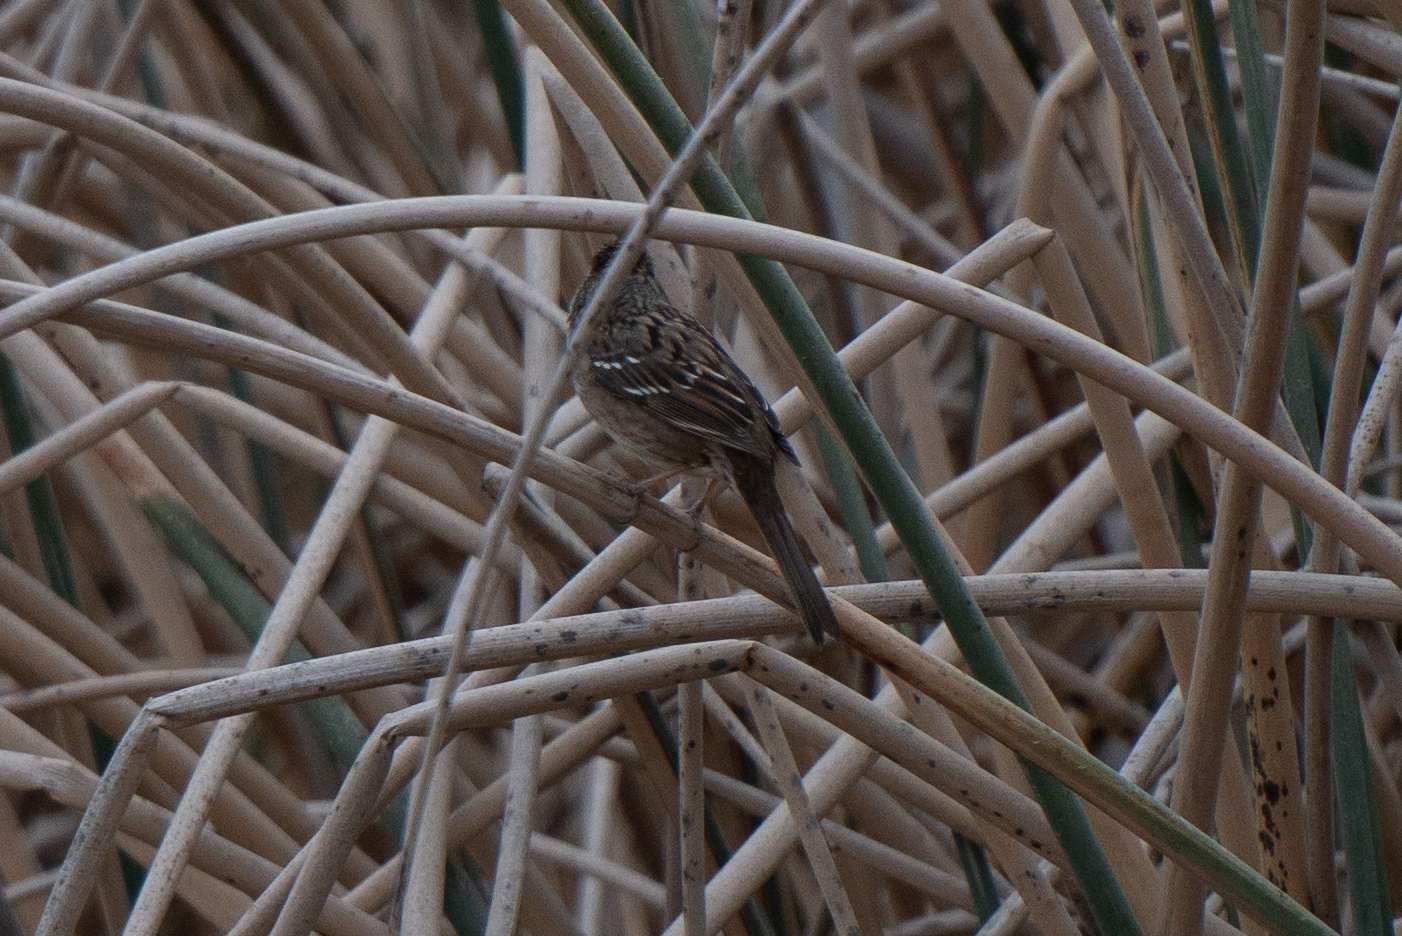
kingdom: Animalia
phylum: Chordata
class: Aves
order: Passeriformes
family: Passerellidae
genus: Zonotrichia
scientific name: Zonotrichia atricapilla
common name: Golden-crowned sparrow
